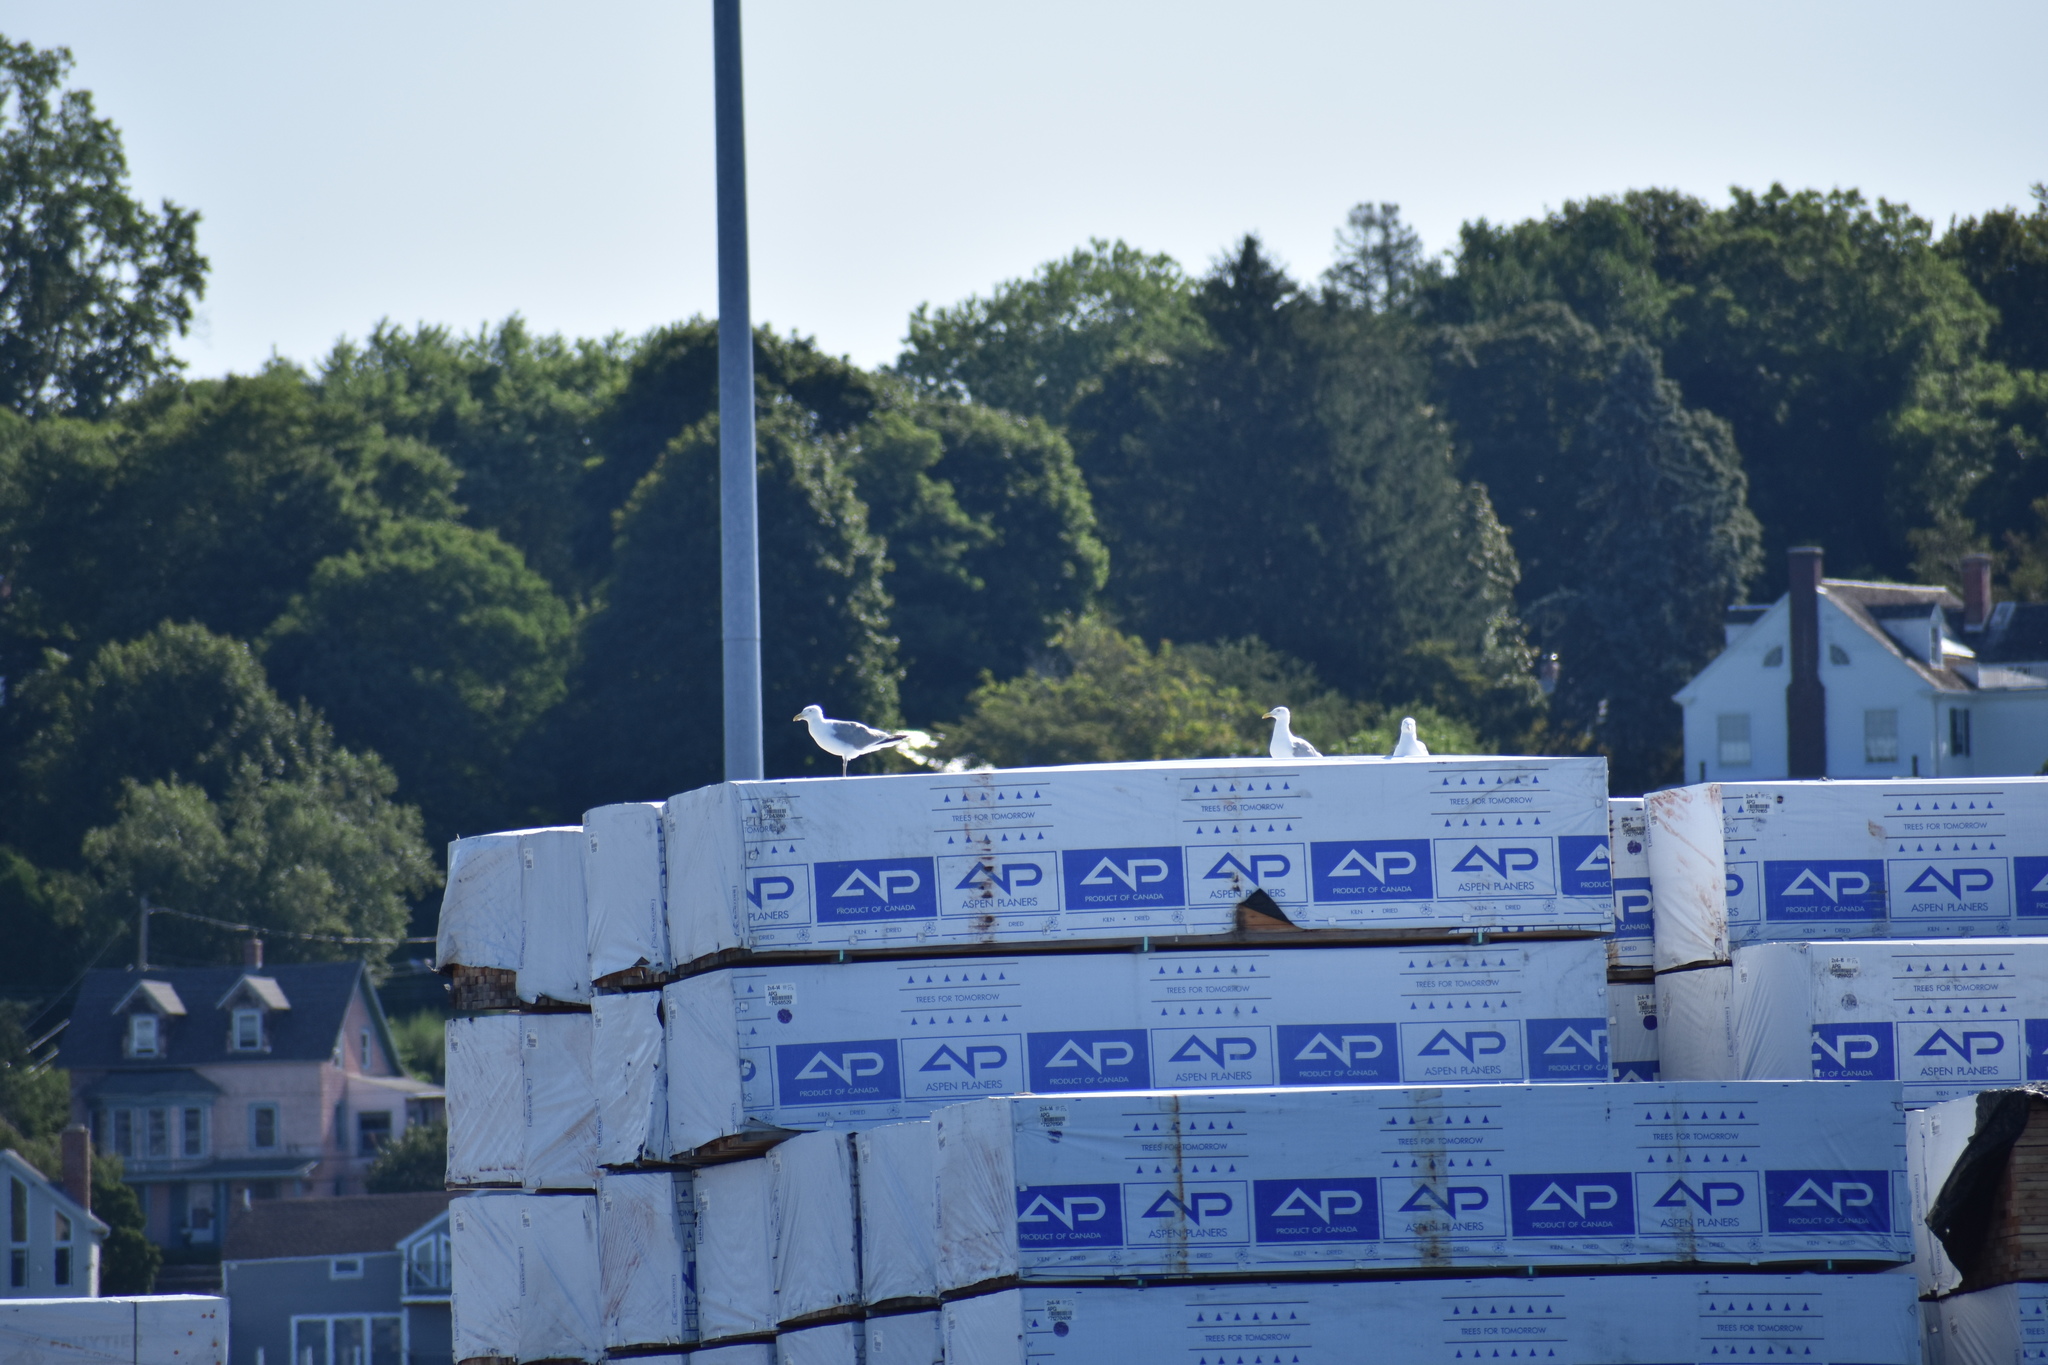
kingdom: Animalia
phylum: Chordata
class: Aves
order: Charadriiformes
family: Laridae
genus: Larus
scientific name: Larus argentatus
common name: Herring gull
